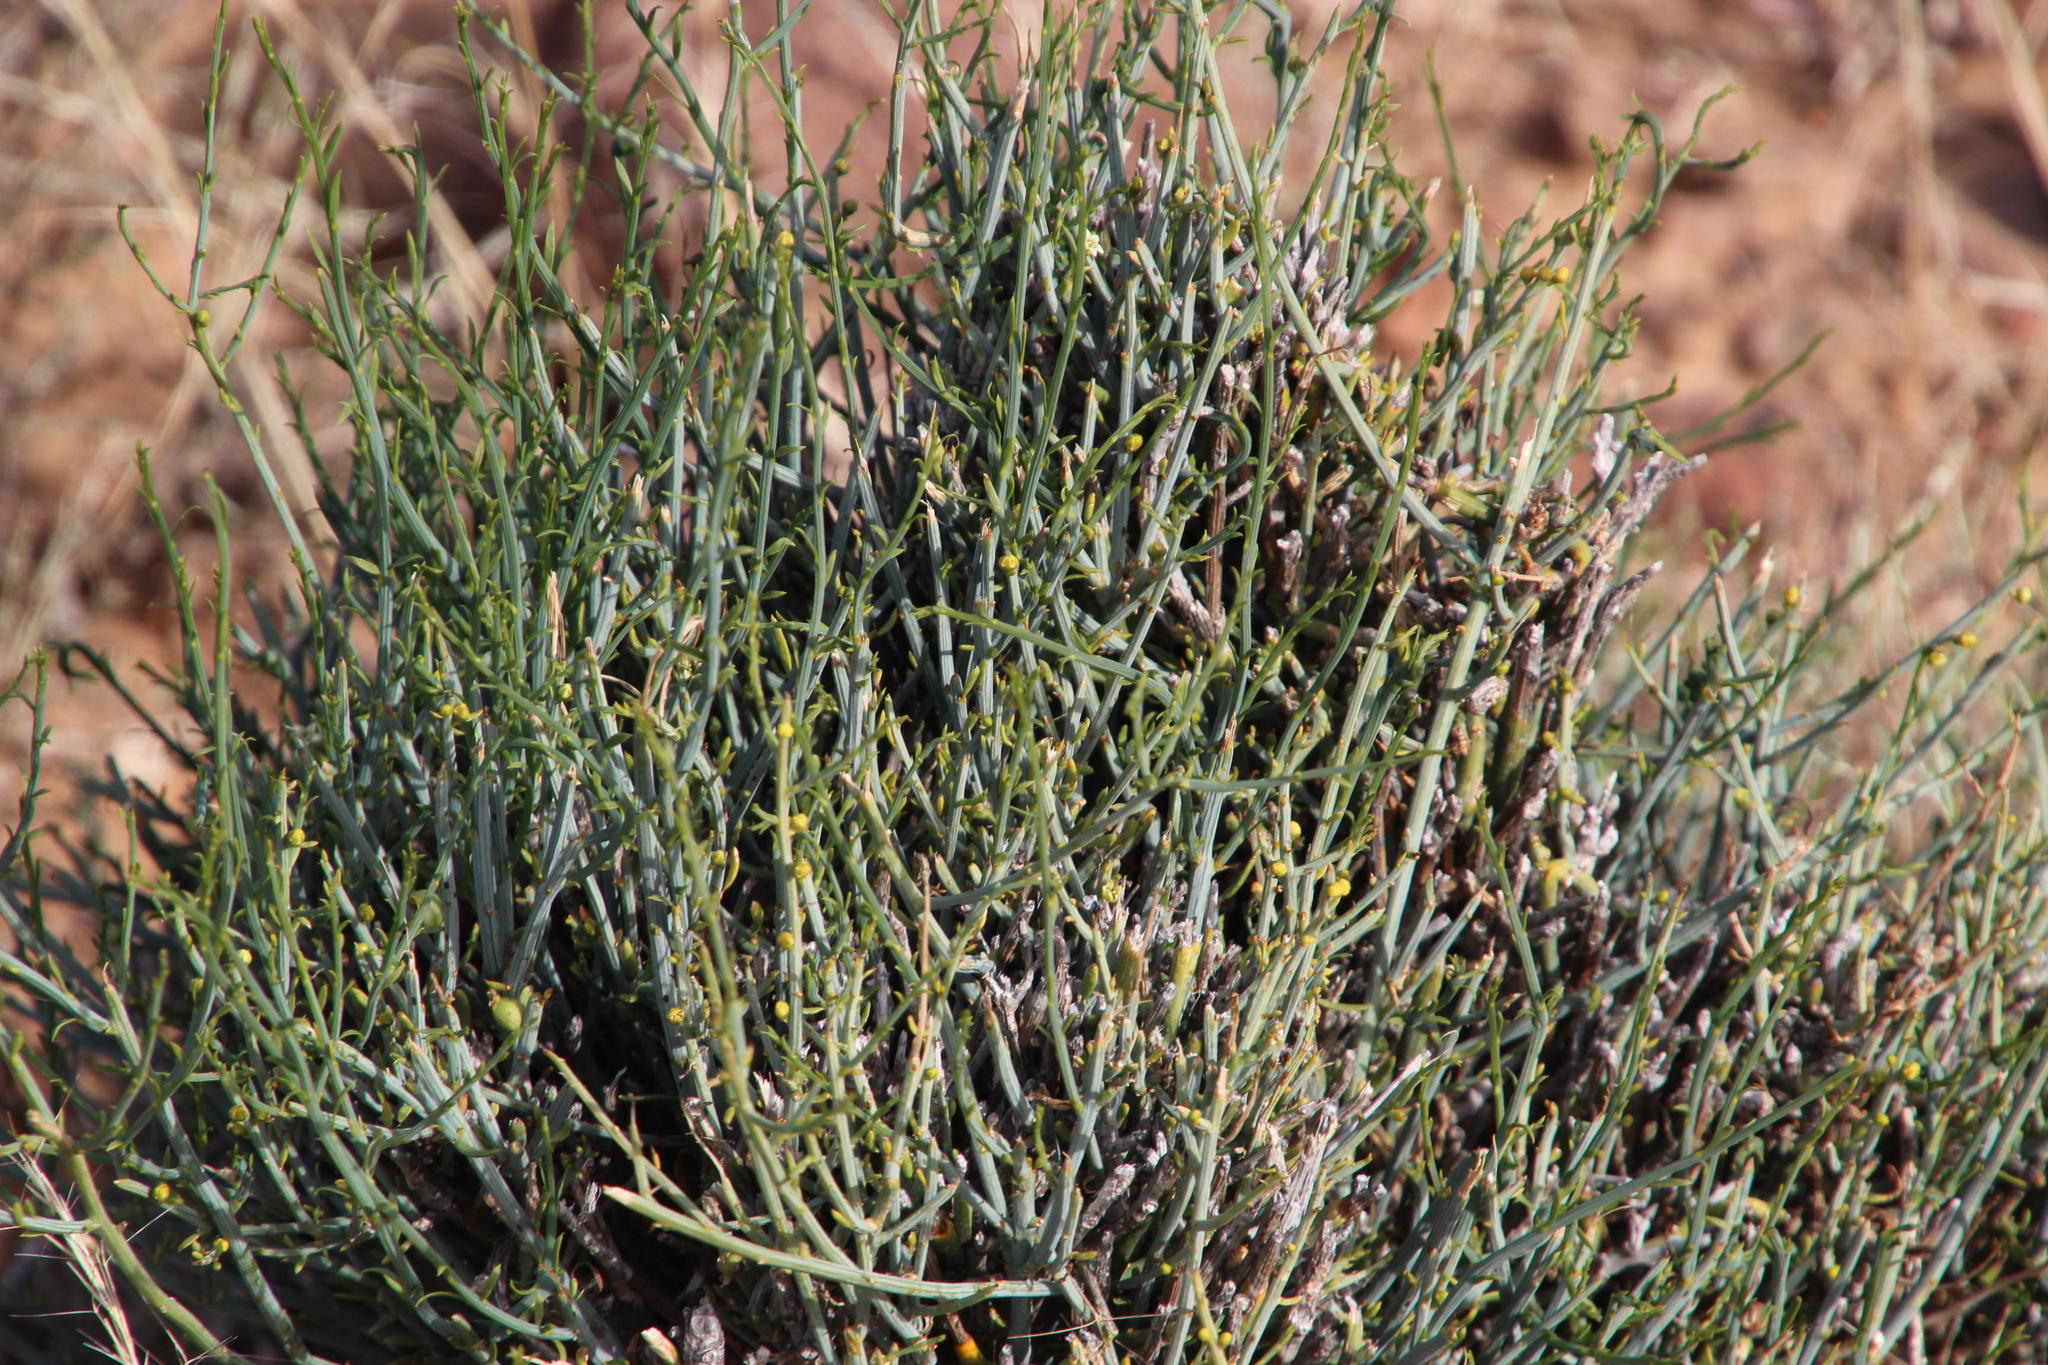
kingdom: Plantae
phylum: Tracheophyta
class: Magnoliopsida
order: Santalales
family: Thesiaceae
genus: Lacomucinaea
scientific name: Lacomucinaea lineata
